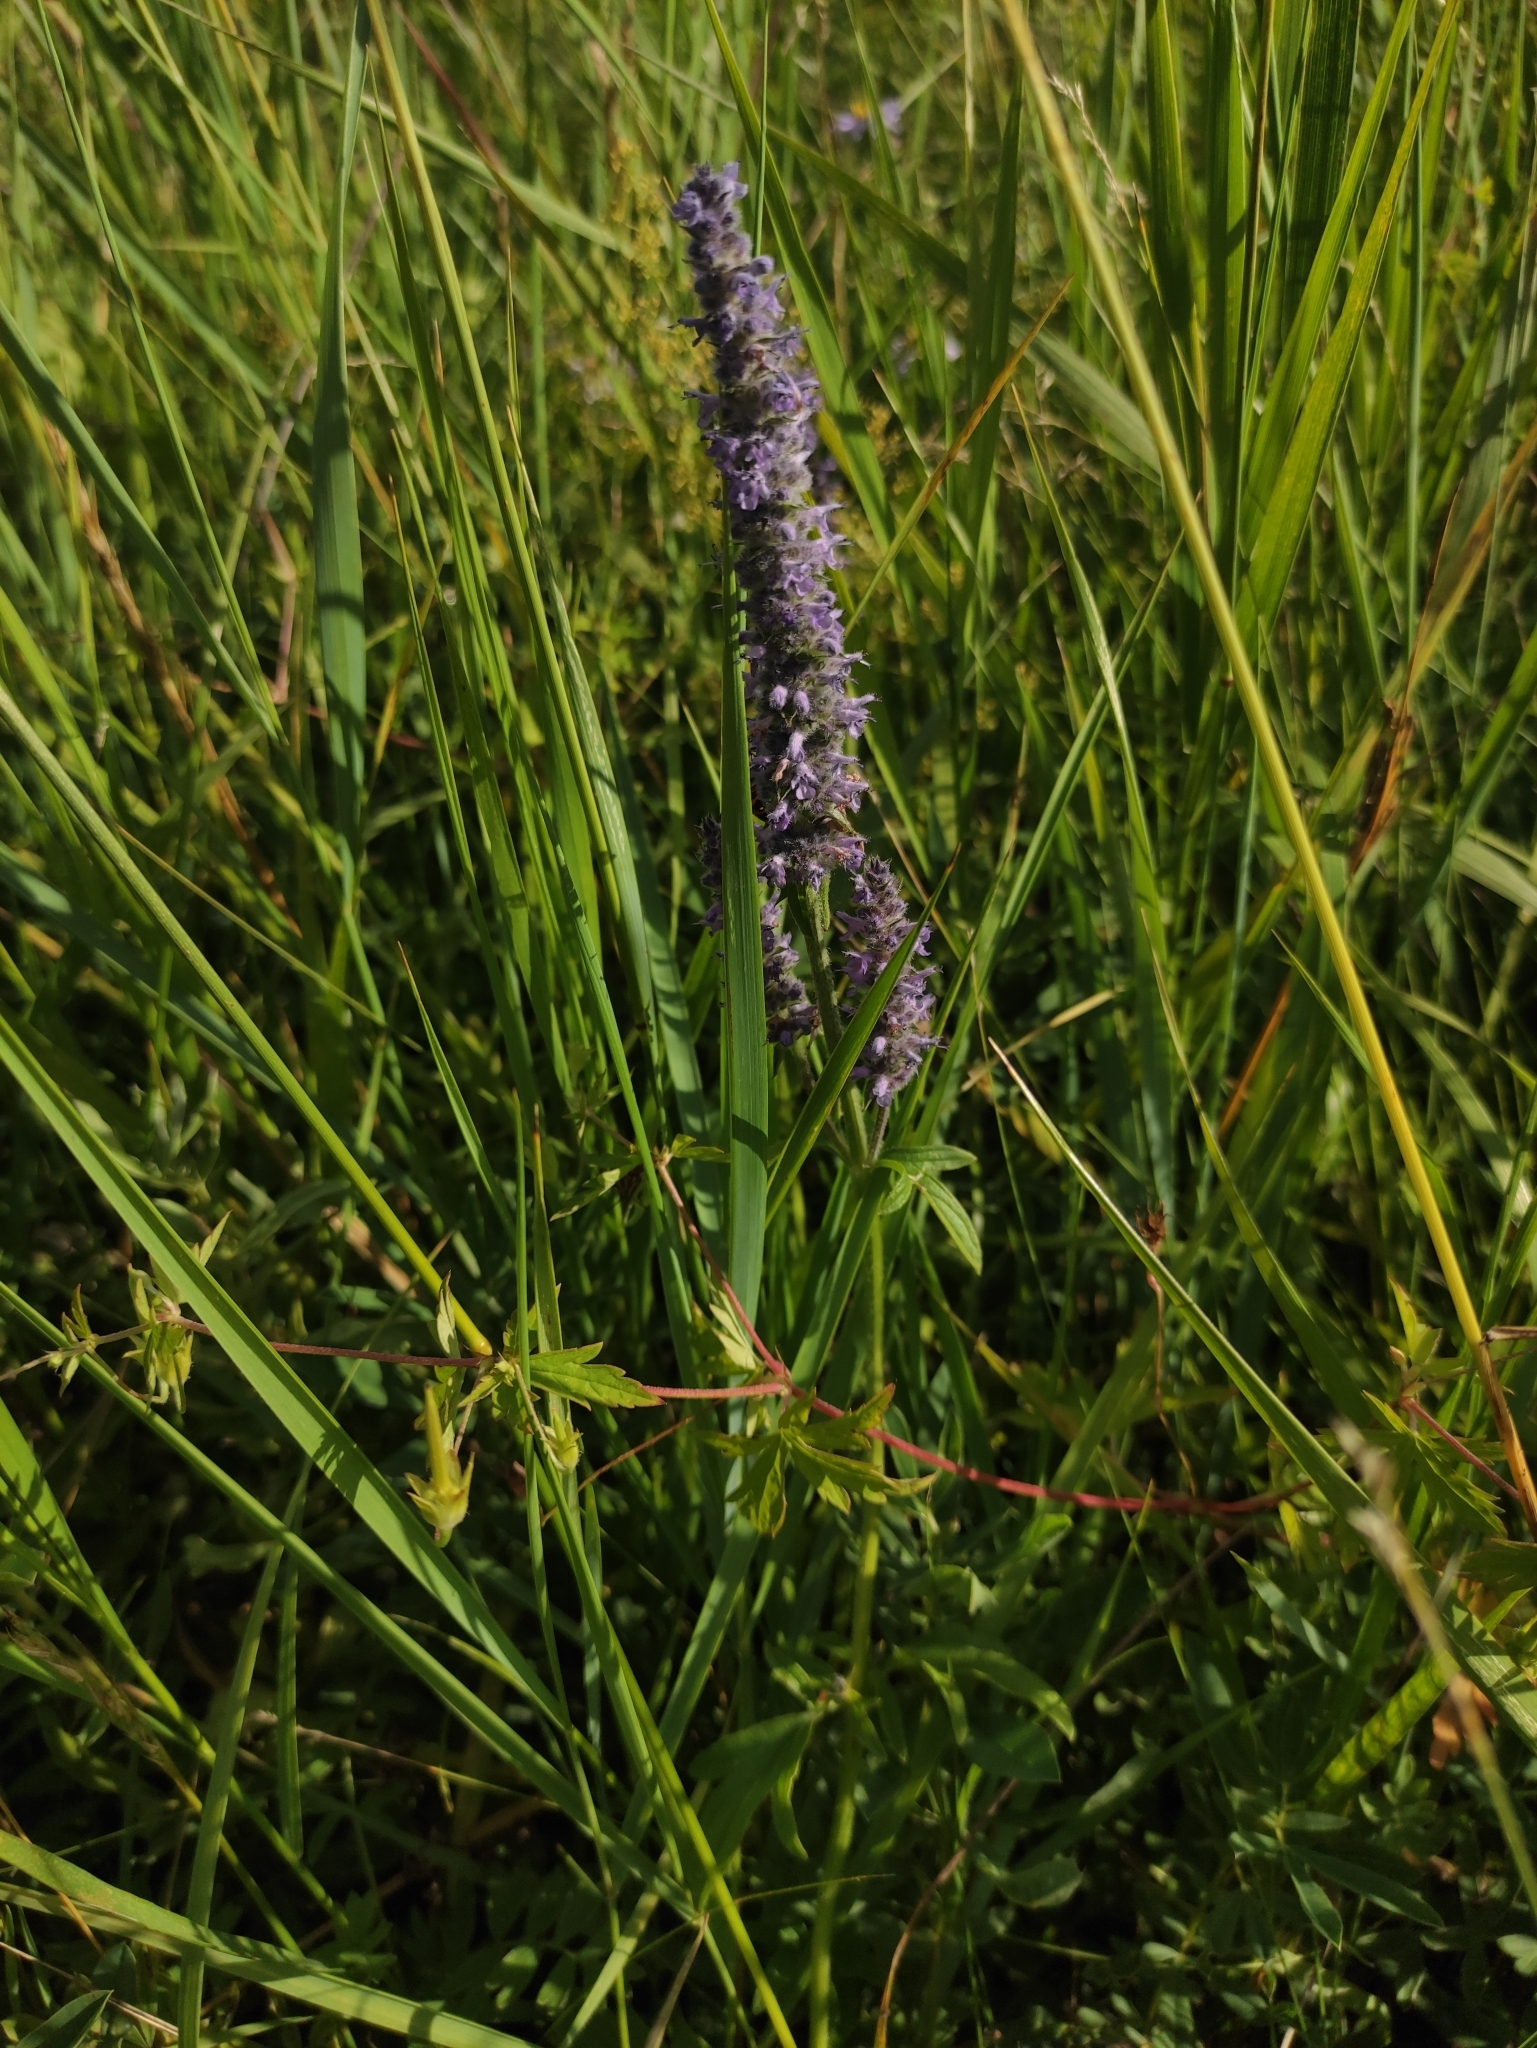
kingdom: Plantae
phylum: Tracheophyta
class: Magnoliopsida
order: Lamiales
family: Lamiaceae
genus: Nepeta
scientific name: Nepeta multifida
